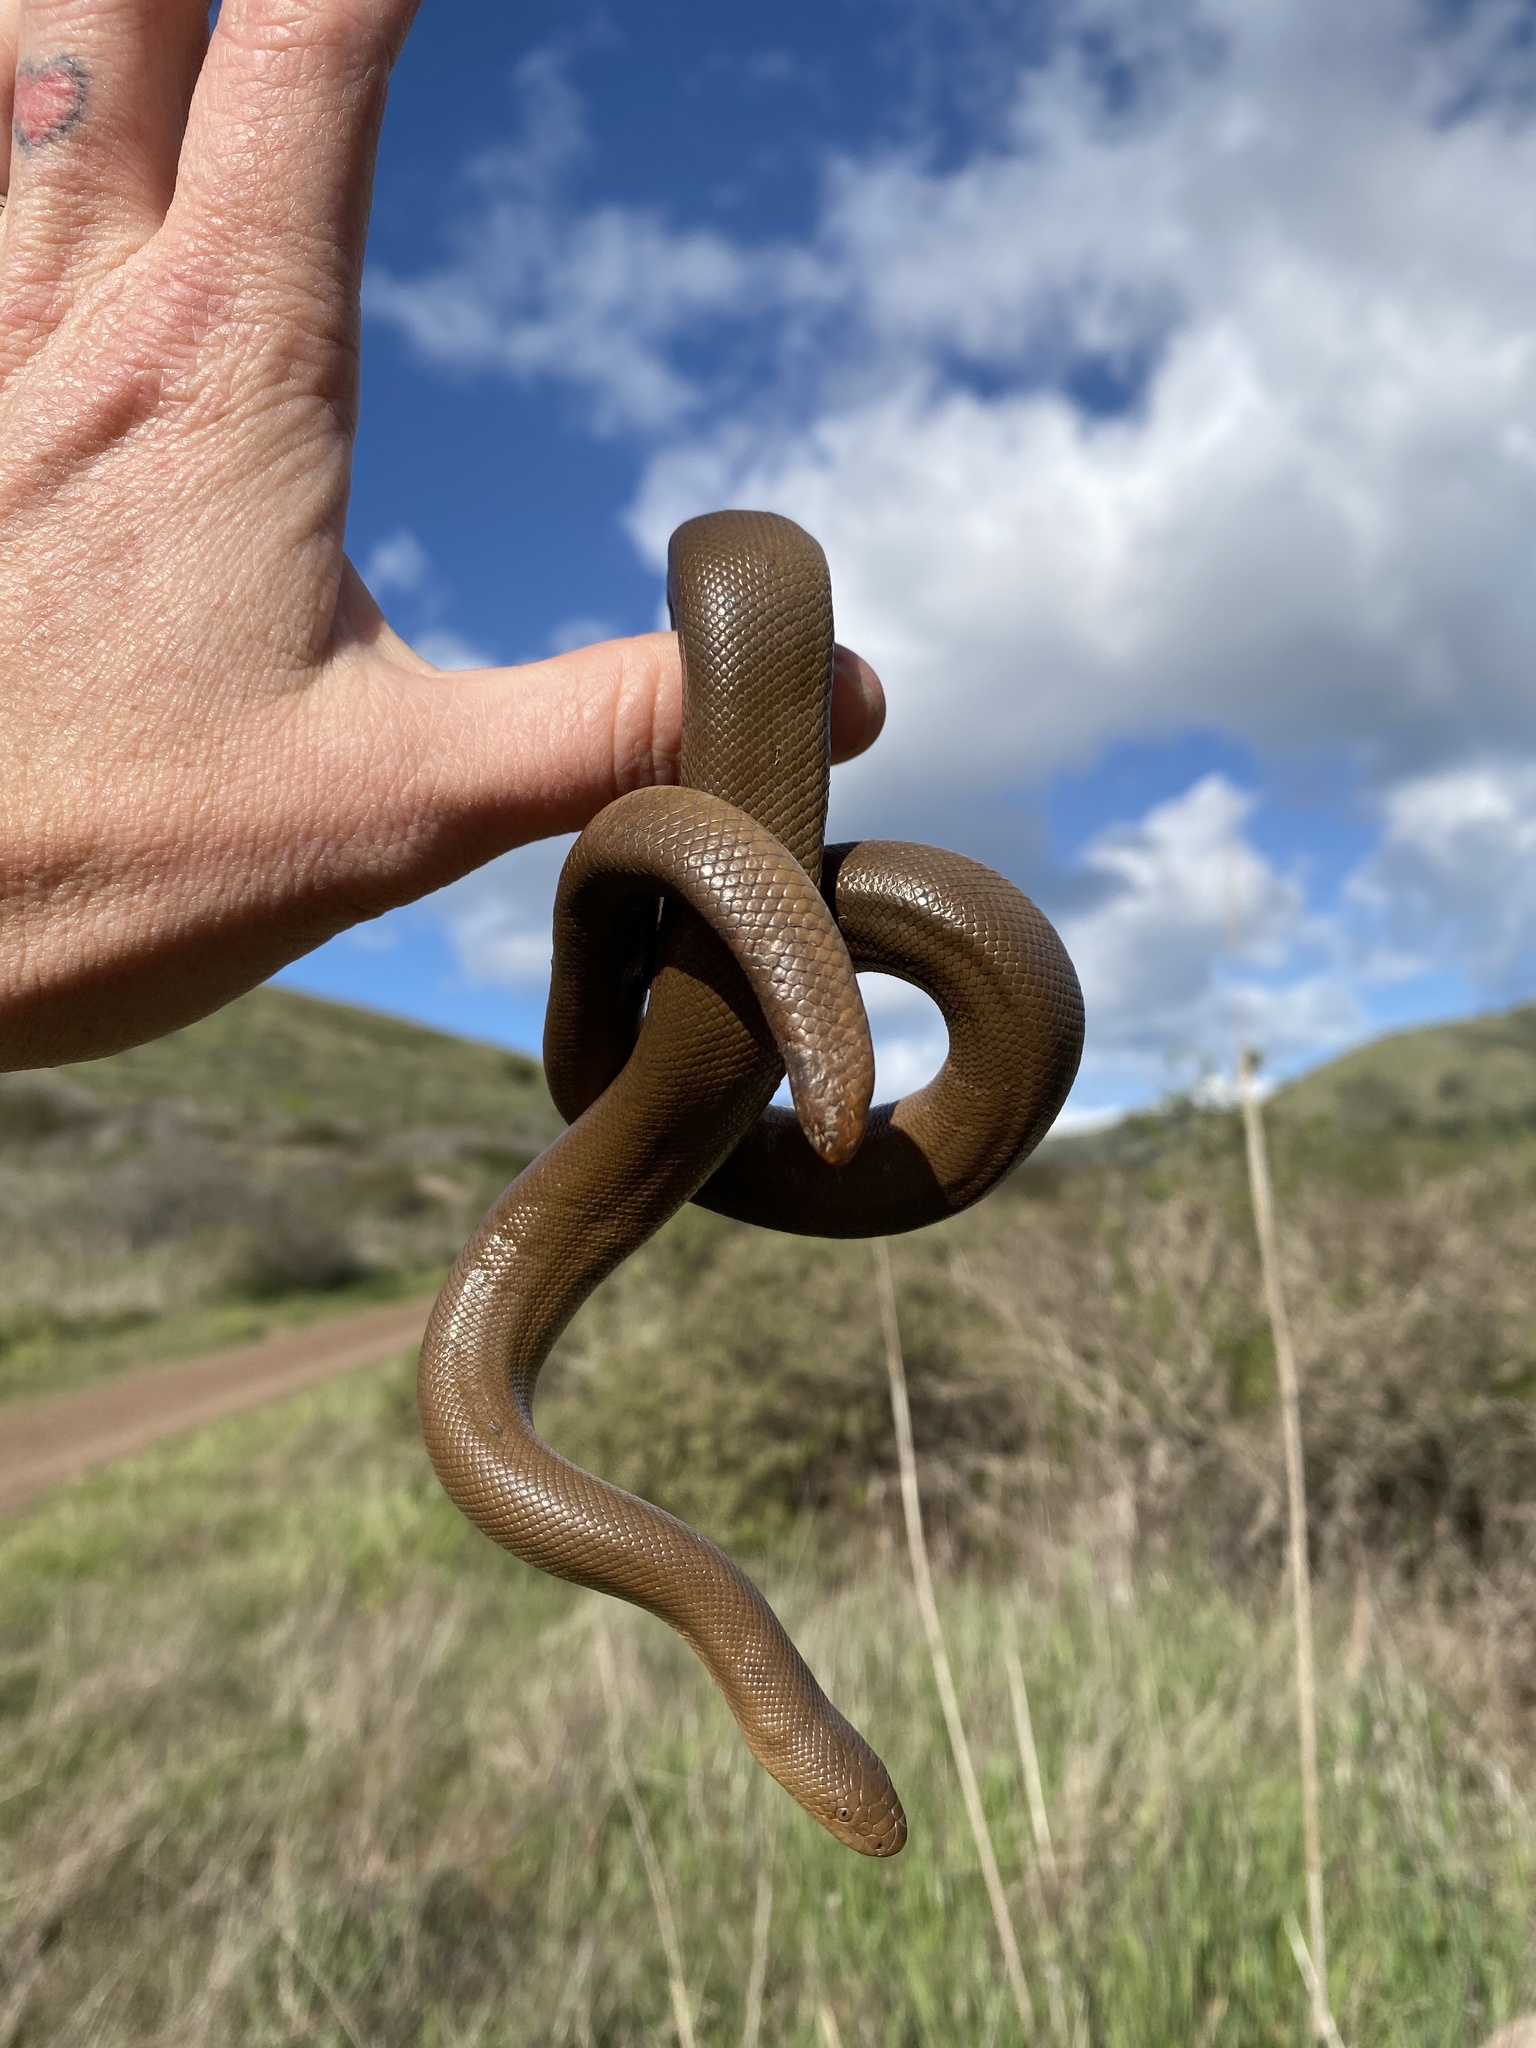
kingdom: Animalia
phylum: Chordata
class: Squamata
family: Boidae
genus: Charina
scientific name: Charina bottae
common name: Northern rubber boa
